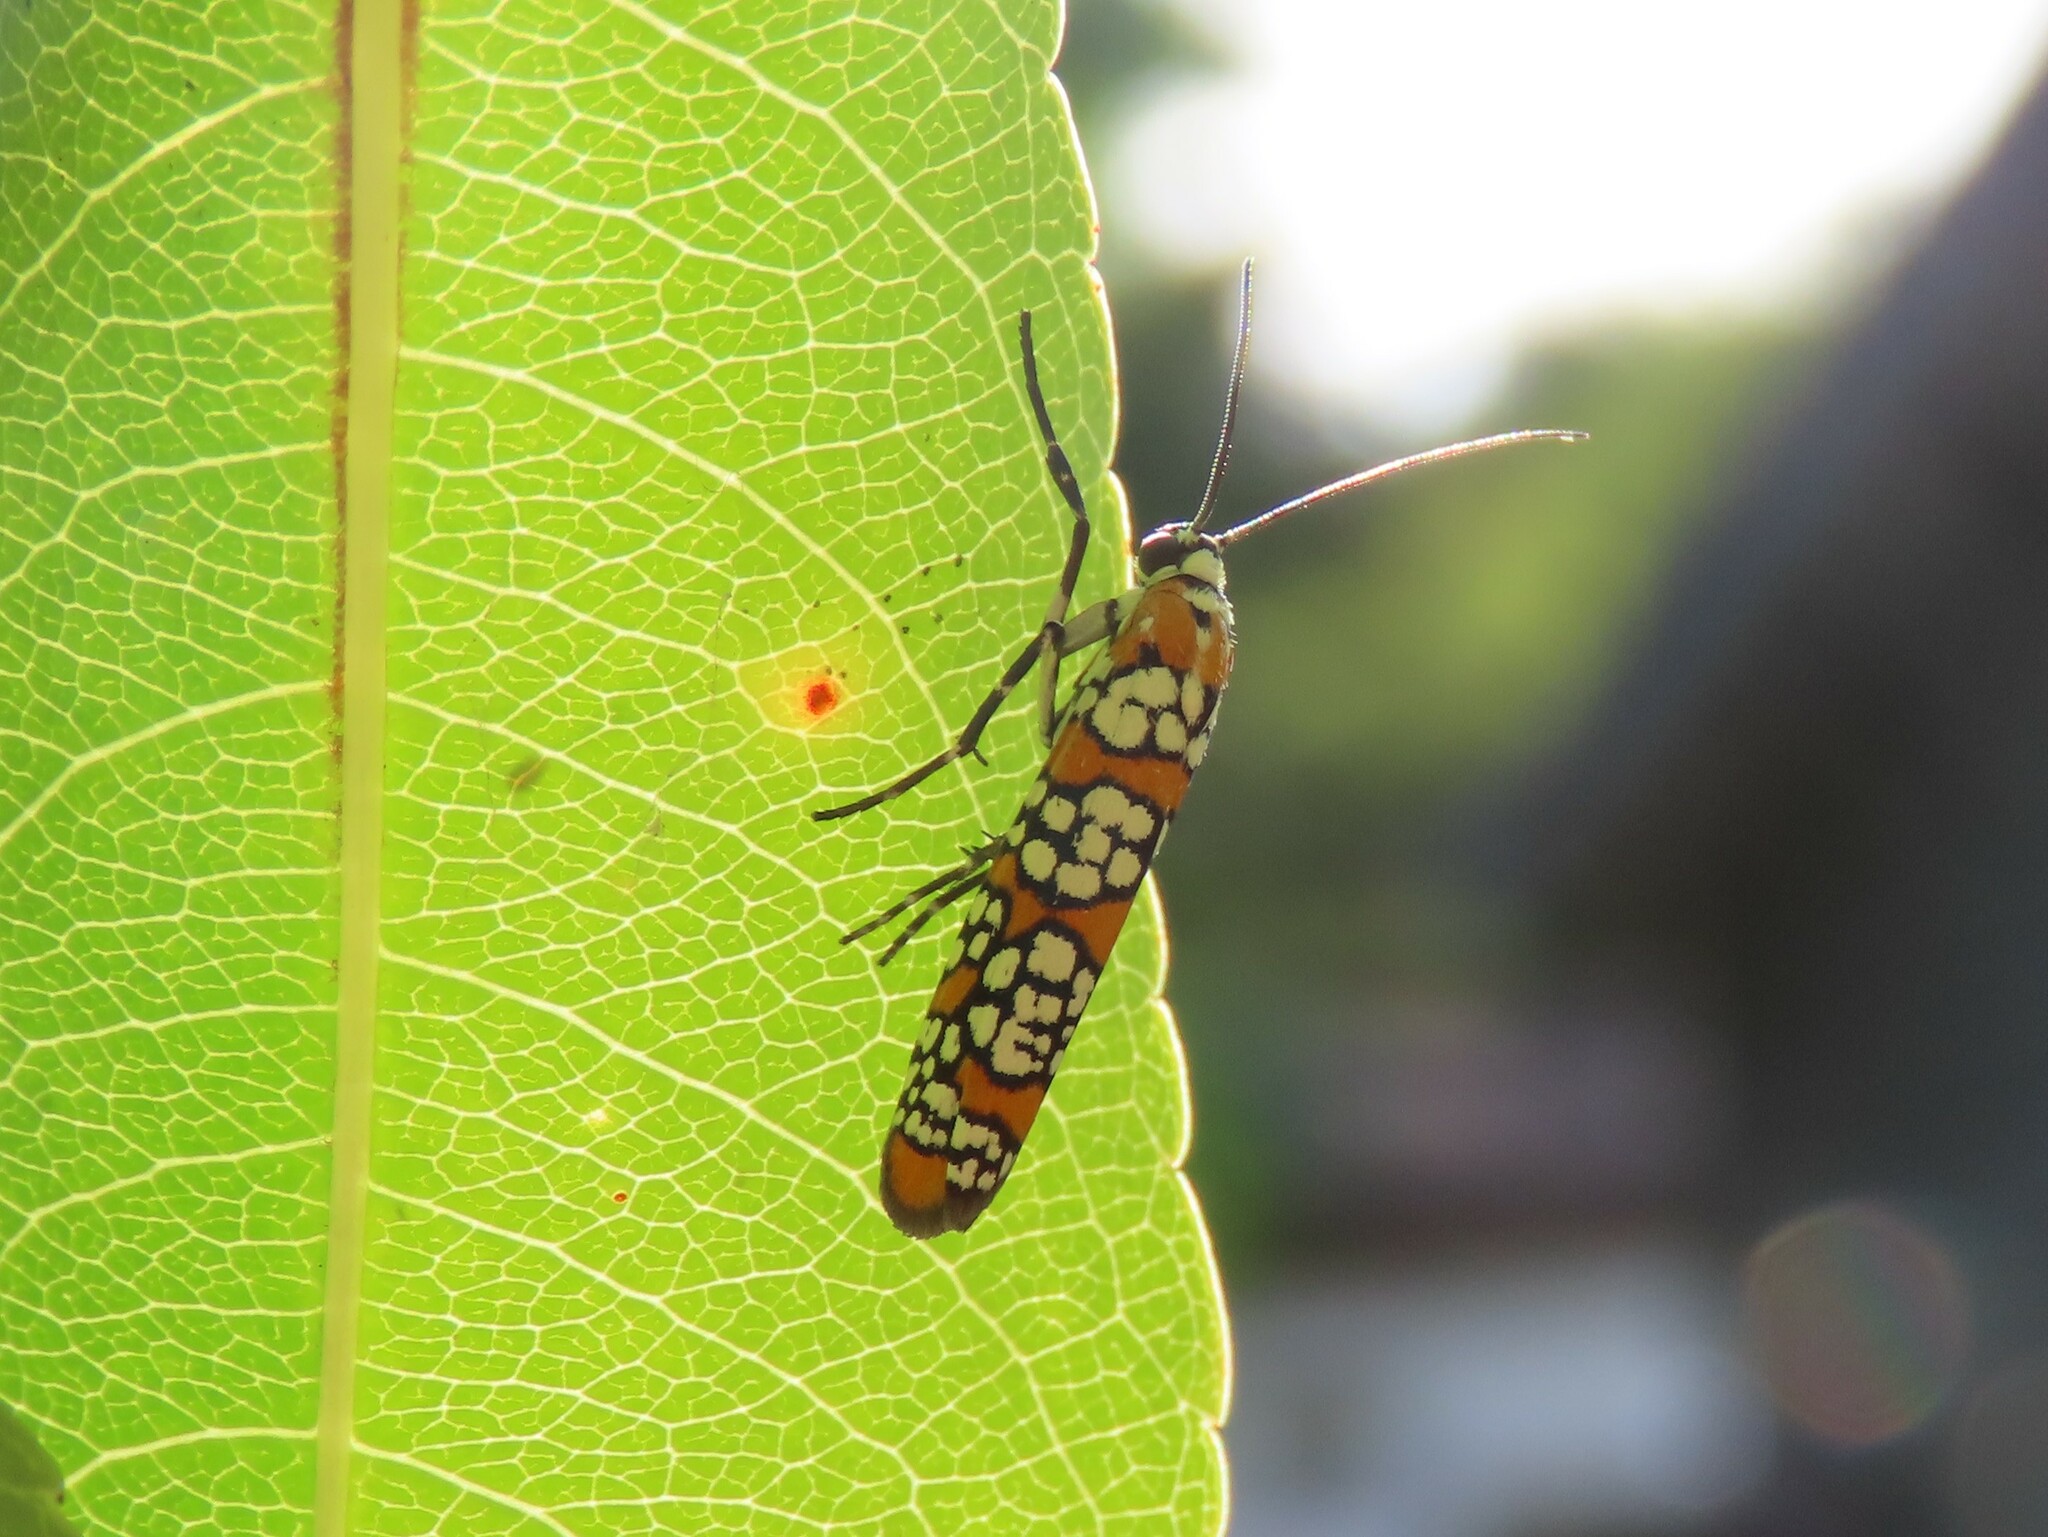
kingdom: Animalia
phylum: Arthropoda
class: Insecta
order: Lepidoptera
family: Attevidae
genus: Atteva
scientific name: Atteva punctella
